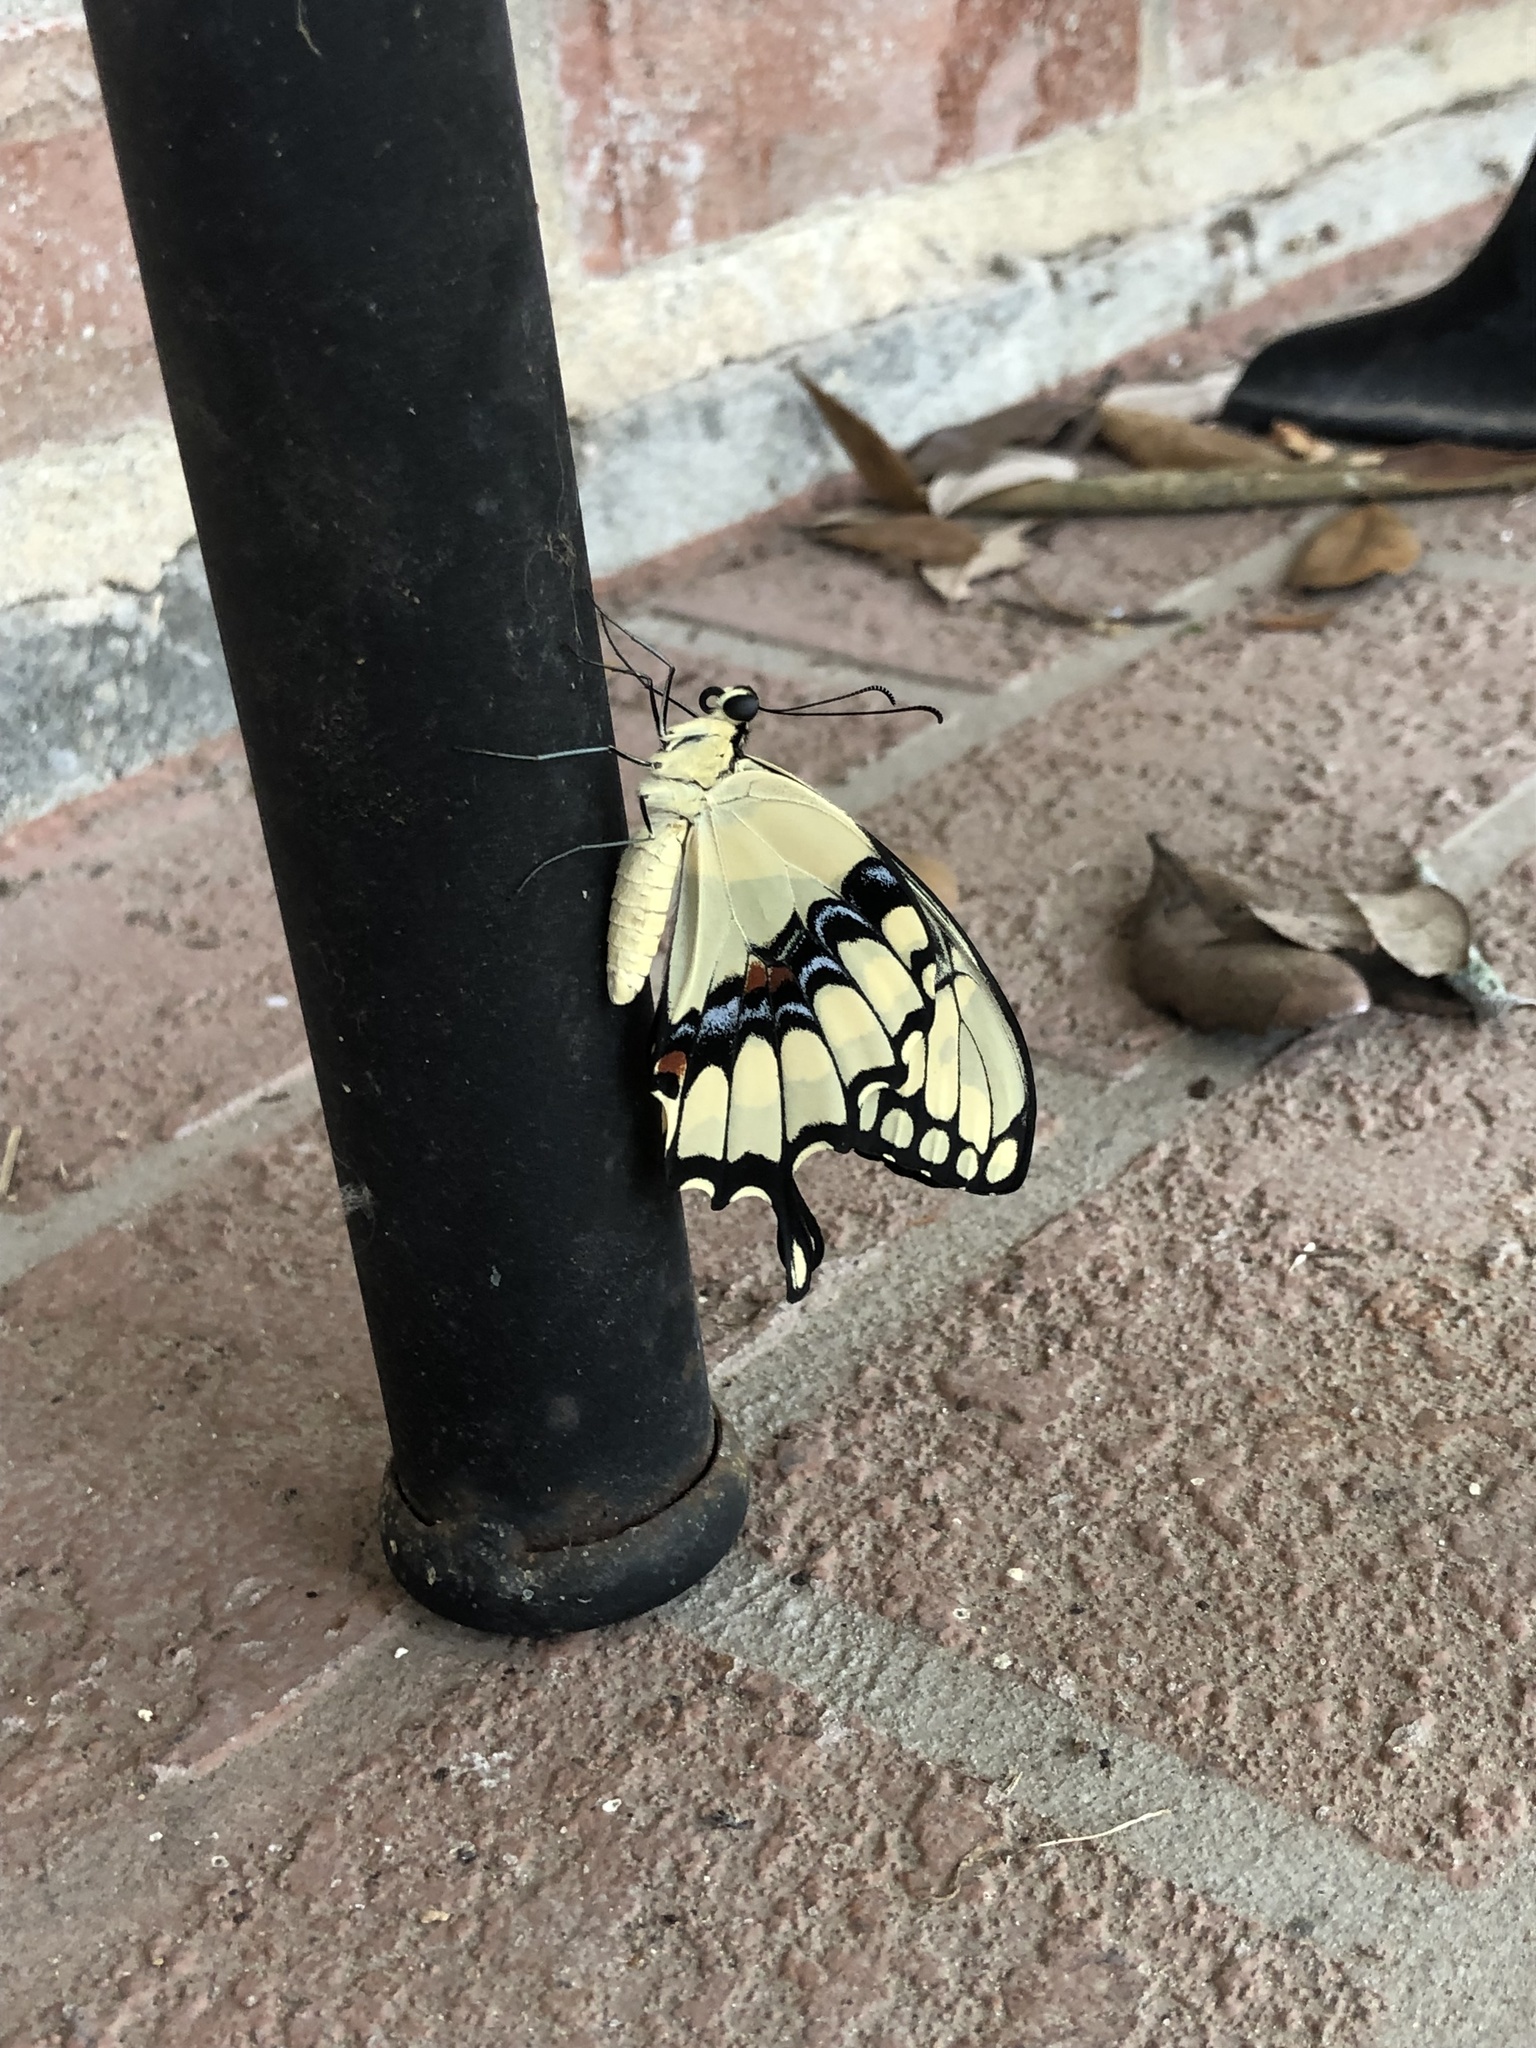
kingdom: Animalia
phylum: Arthropoda
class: Insecta
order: Lepidoptera
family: Papilionidae
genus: Papilio
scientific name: Papilio cresphontes
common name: Giant swallowtail
